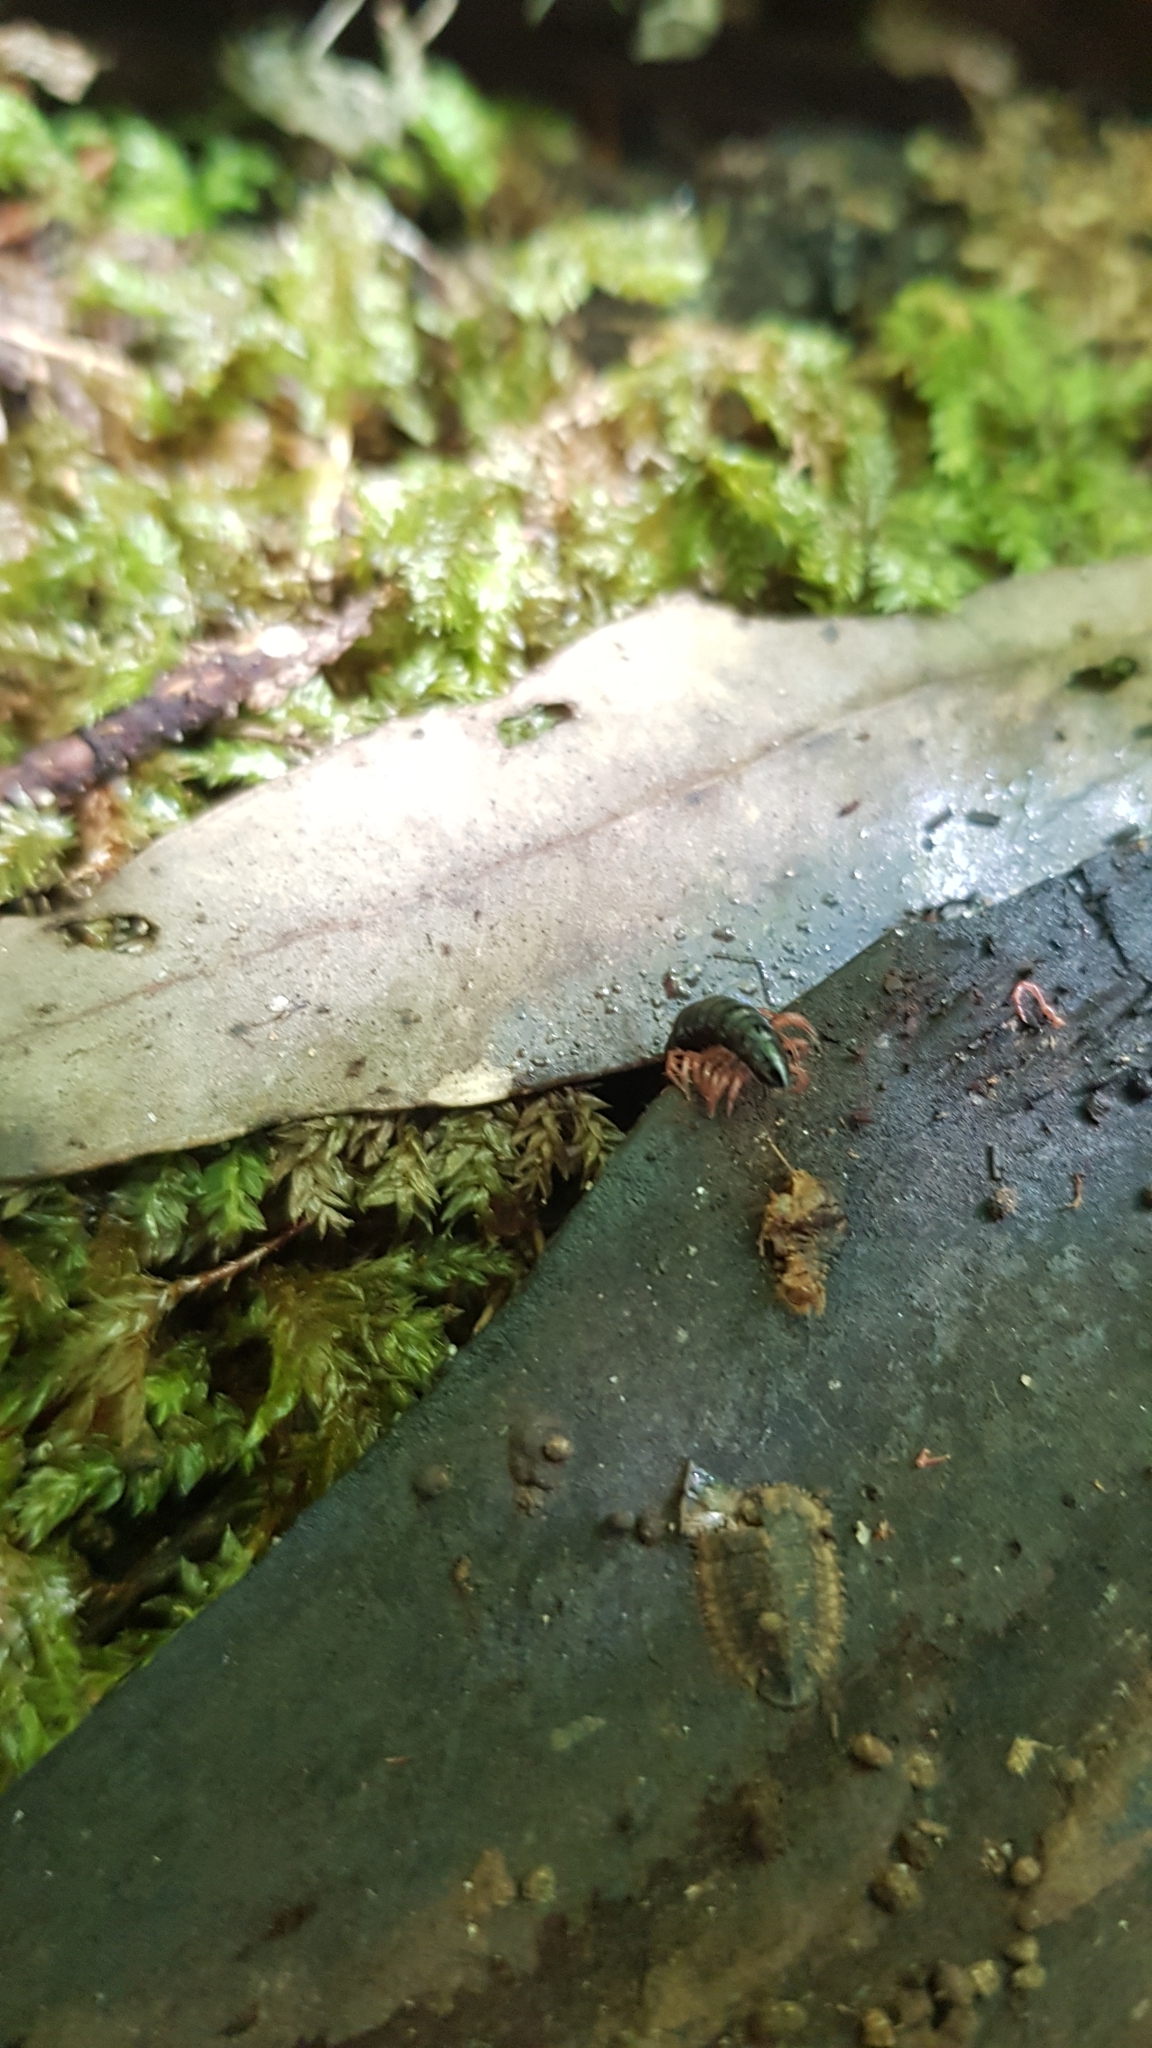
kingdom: Animalia
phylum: Arthropoda
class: Diplopoda
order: Polydesmida
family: Paradoxosomatidae
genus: Heterocladosoma
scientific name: Heterocladosoma
